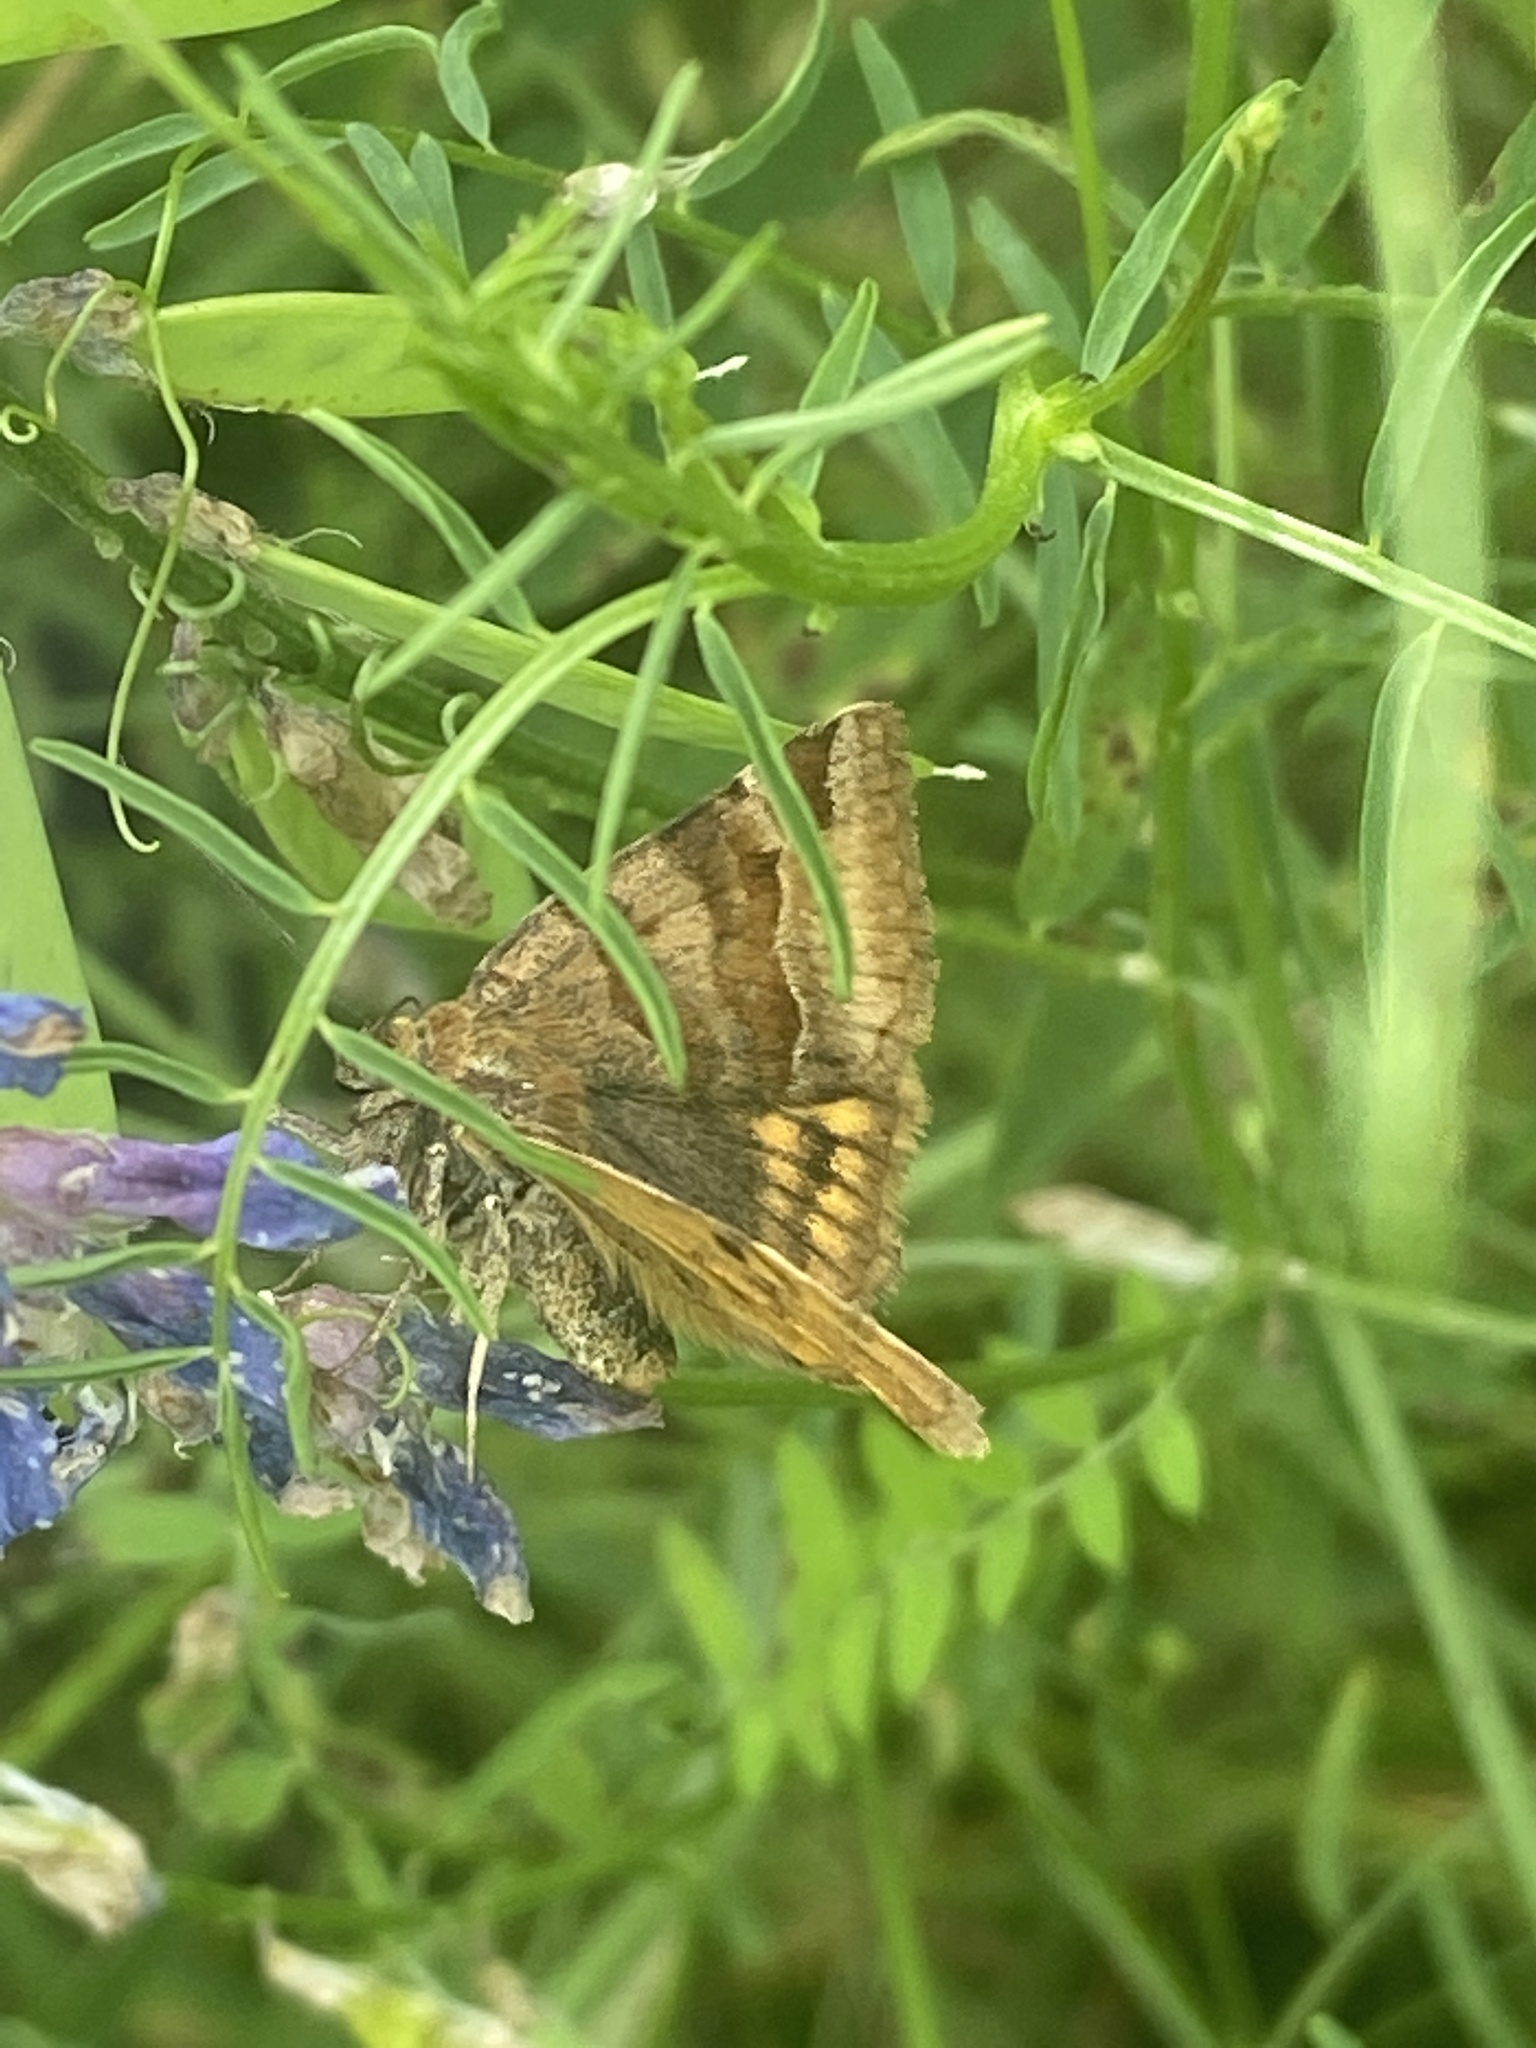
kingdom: Animalia
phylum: Arthropoda
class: Insecta
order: Lepidoptera
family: Erebidae
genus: Euclidia
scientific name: Euclidia glyphica
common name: Burnet companion
